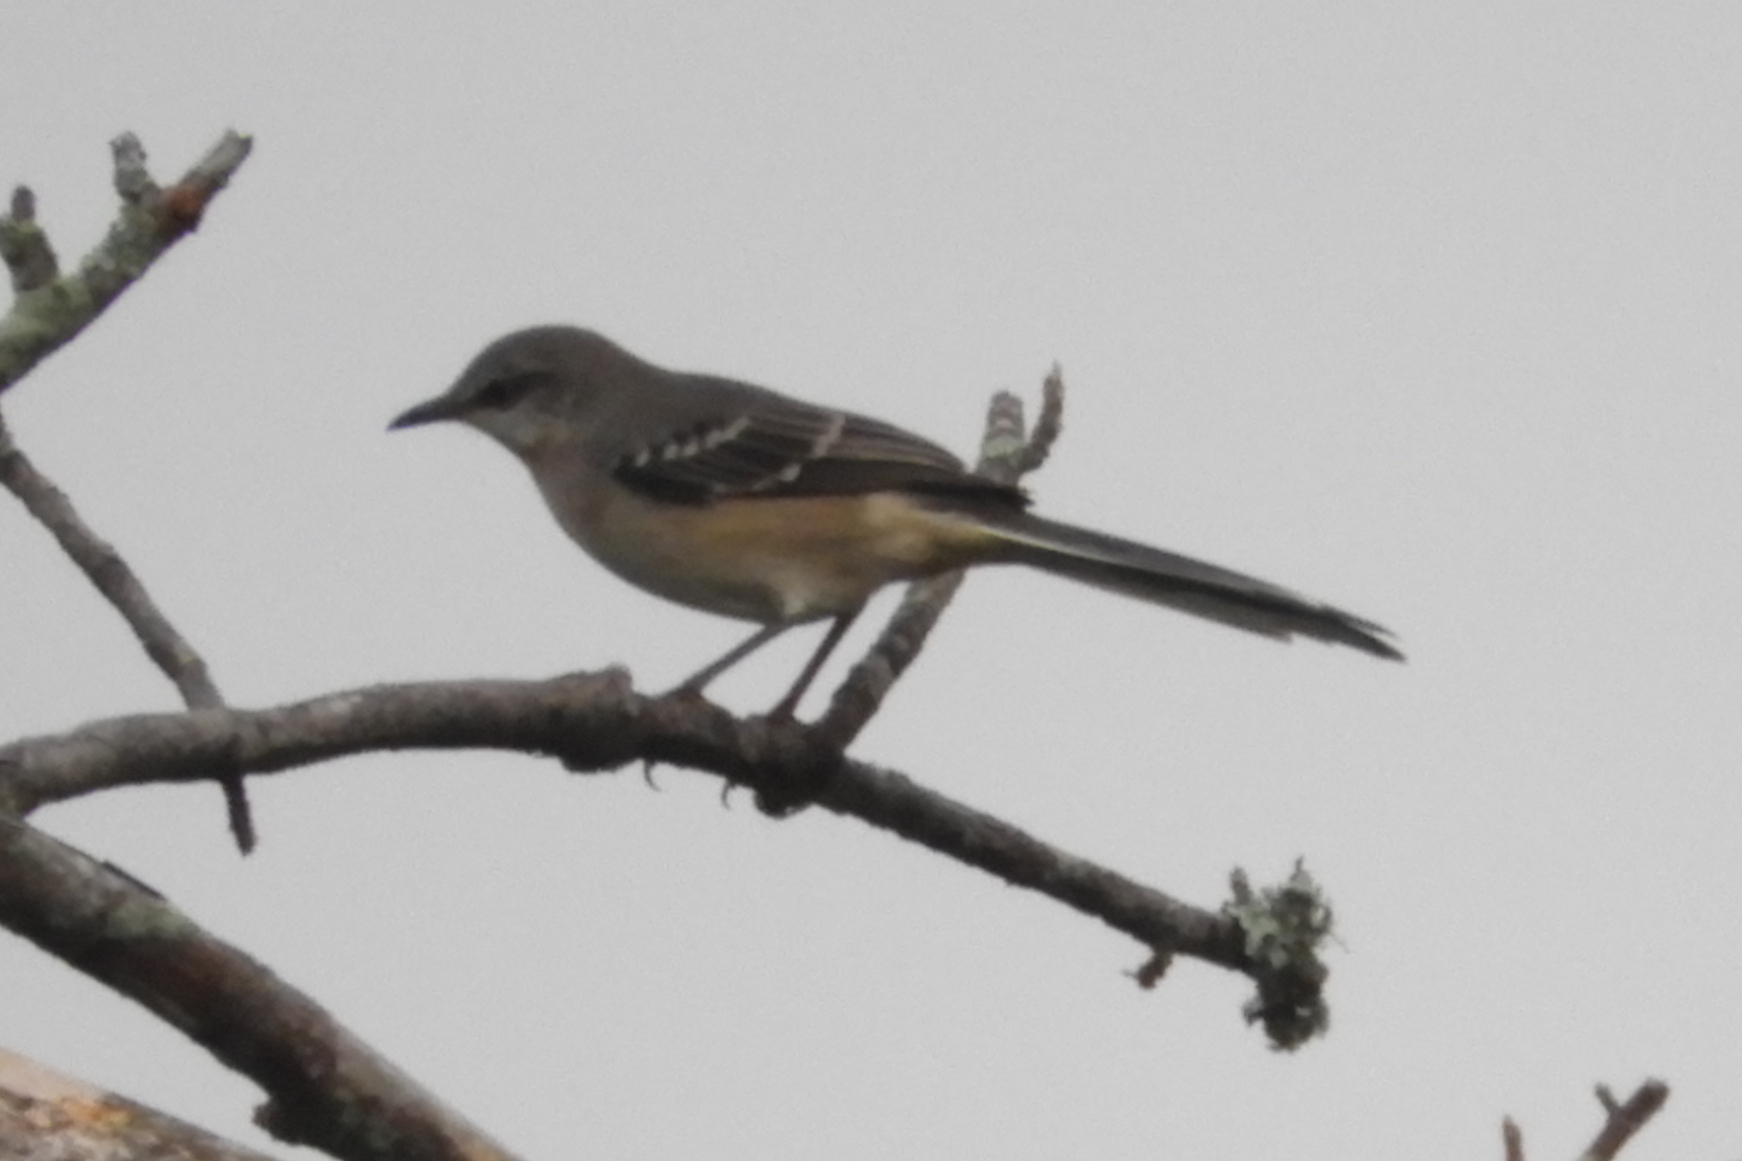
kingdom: Animalia
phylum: Chordata
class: Aves
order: Passeriformes
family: Mimidae
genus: Mimus
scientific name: Mimus polyglottos
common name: Northern mockingbird
